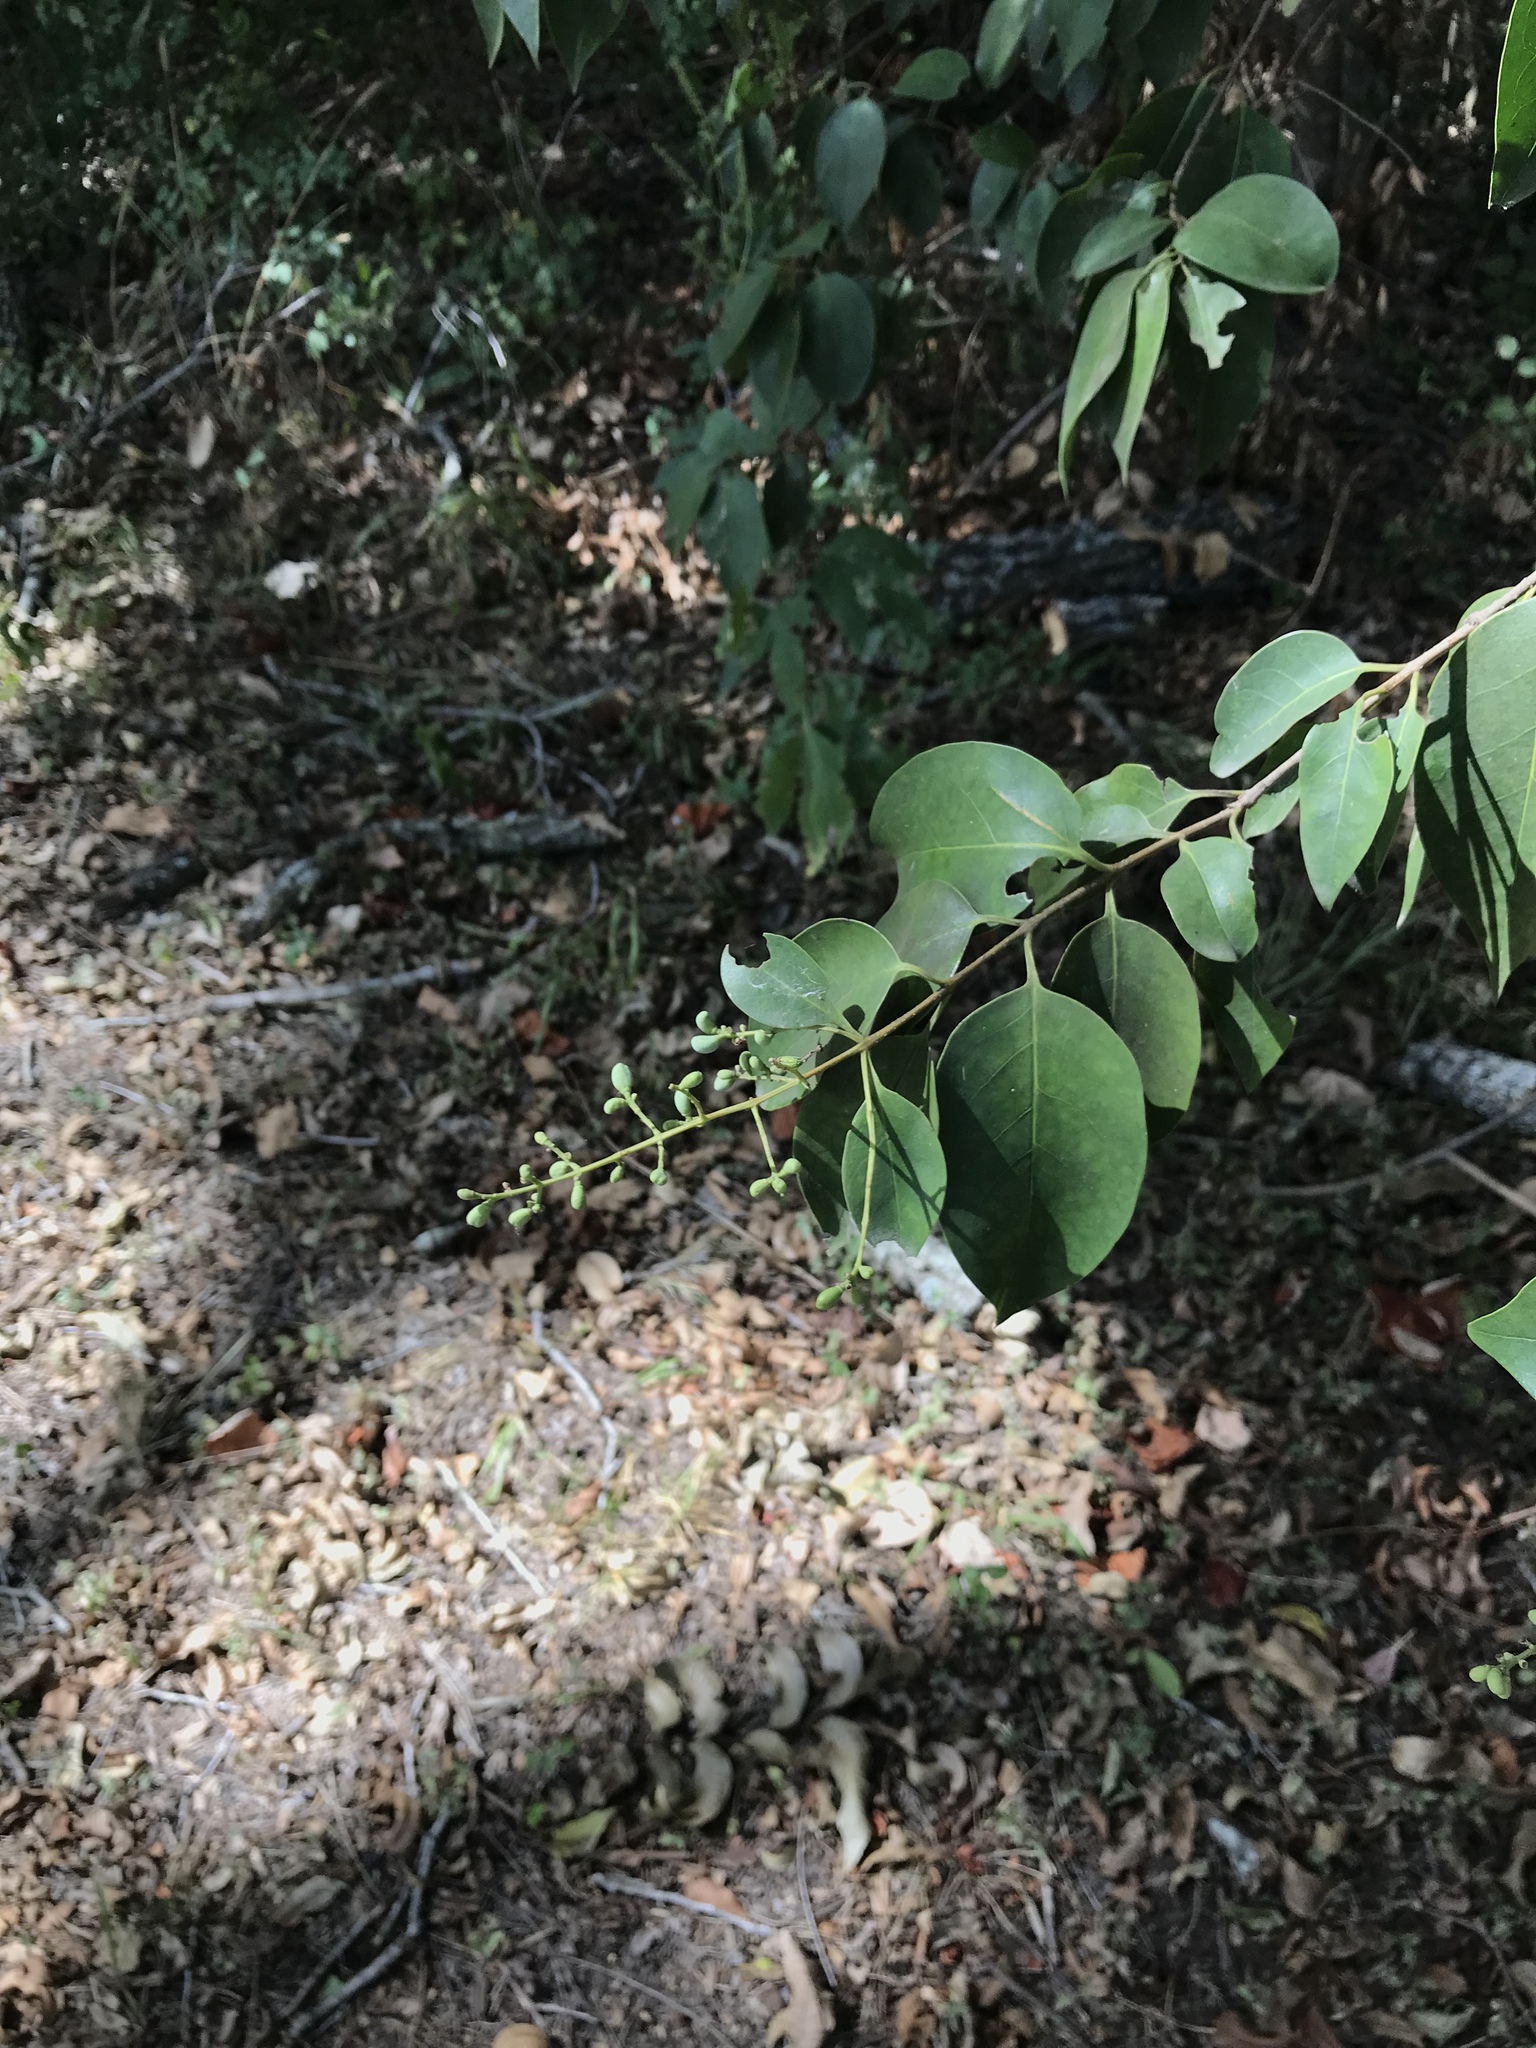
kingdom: Plantae
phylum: Tracheophyta
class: Magnoliopsida
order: Lamiales
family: Oleaceae
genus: Ligustrum
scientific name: Ligustrum lucidum
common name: Glossy privet
